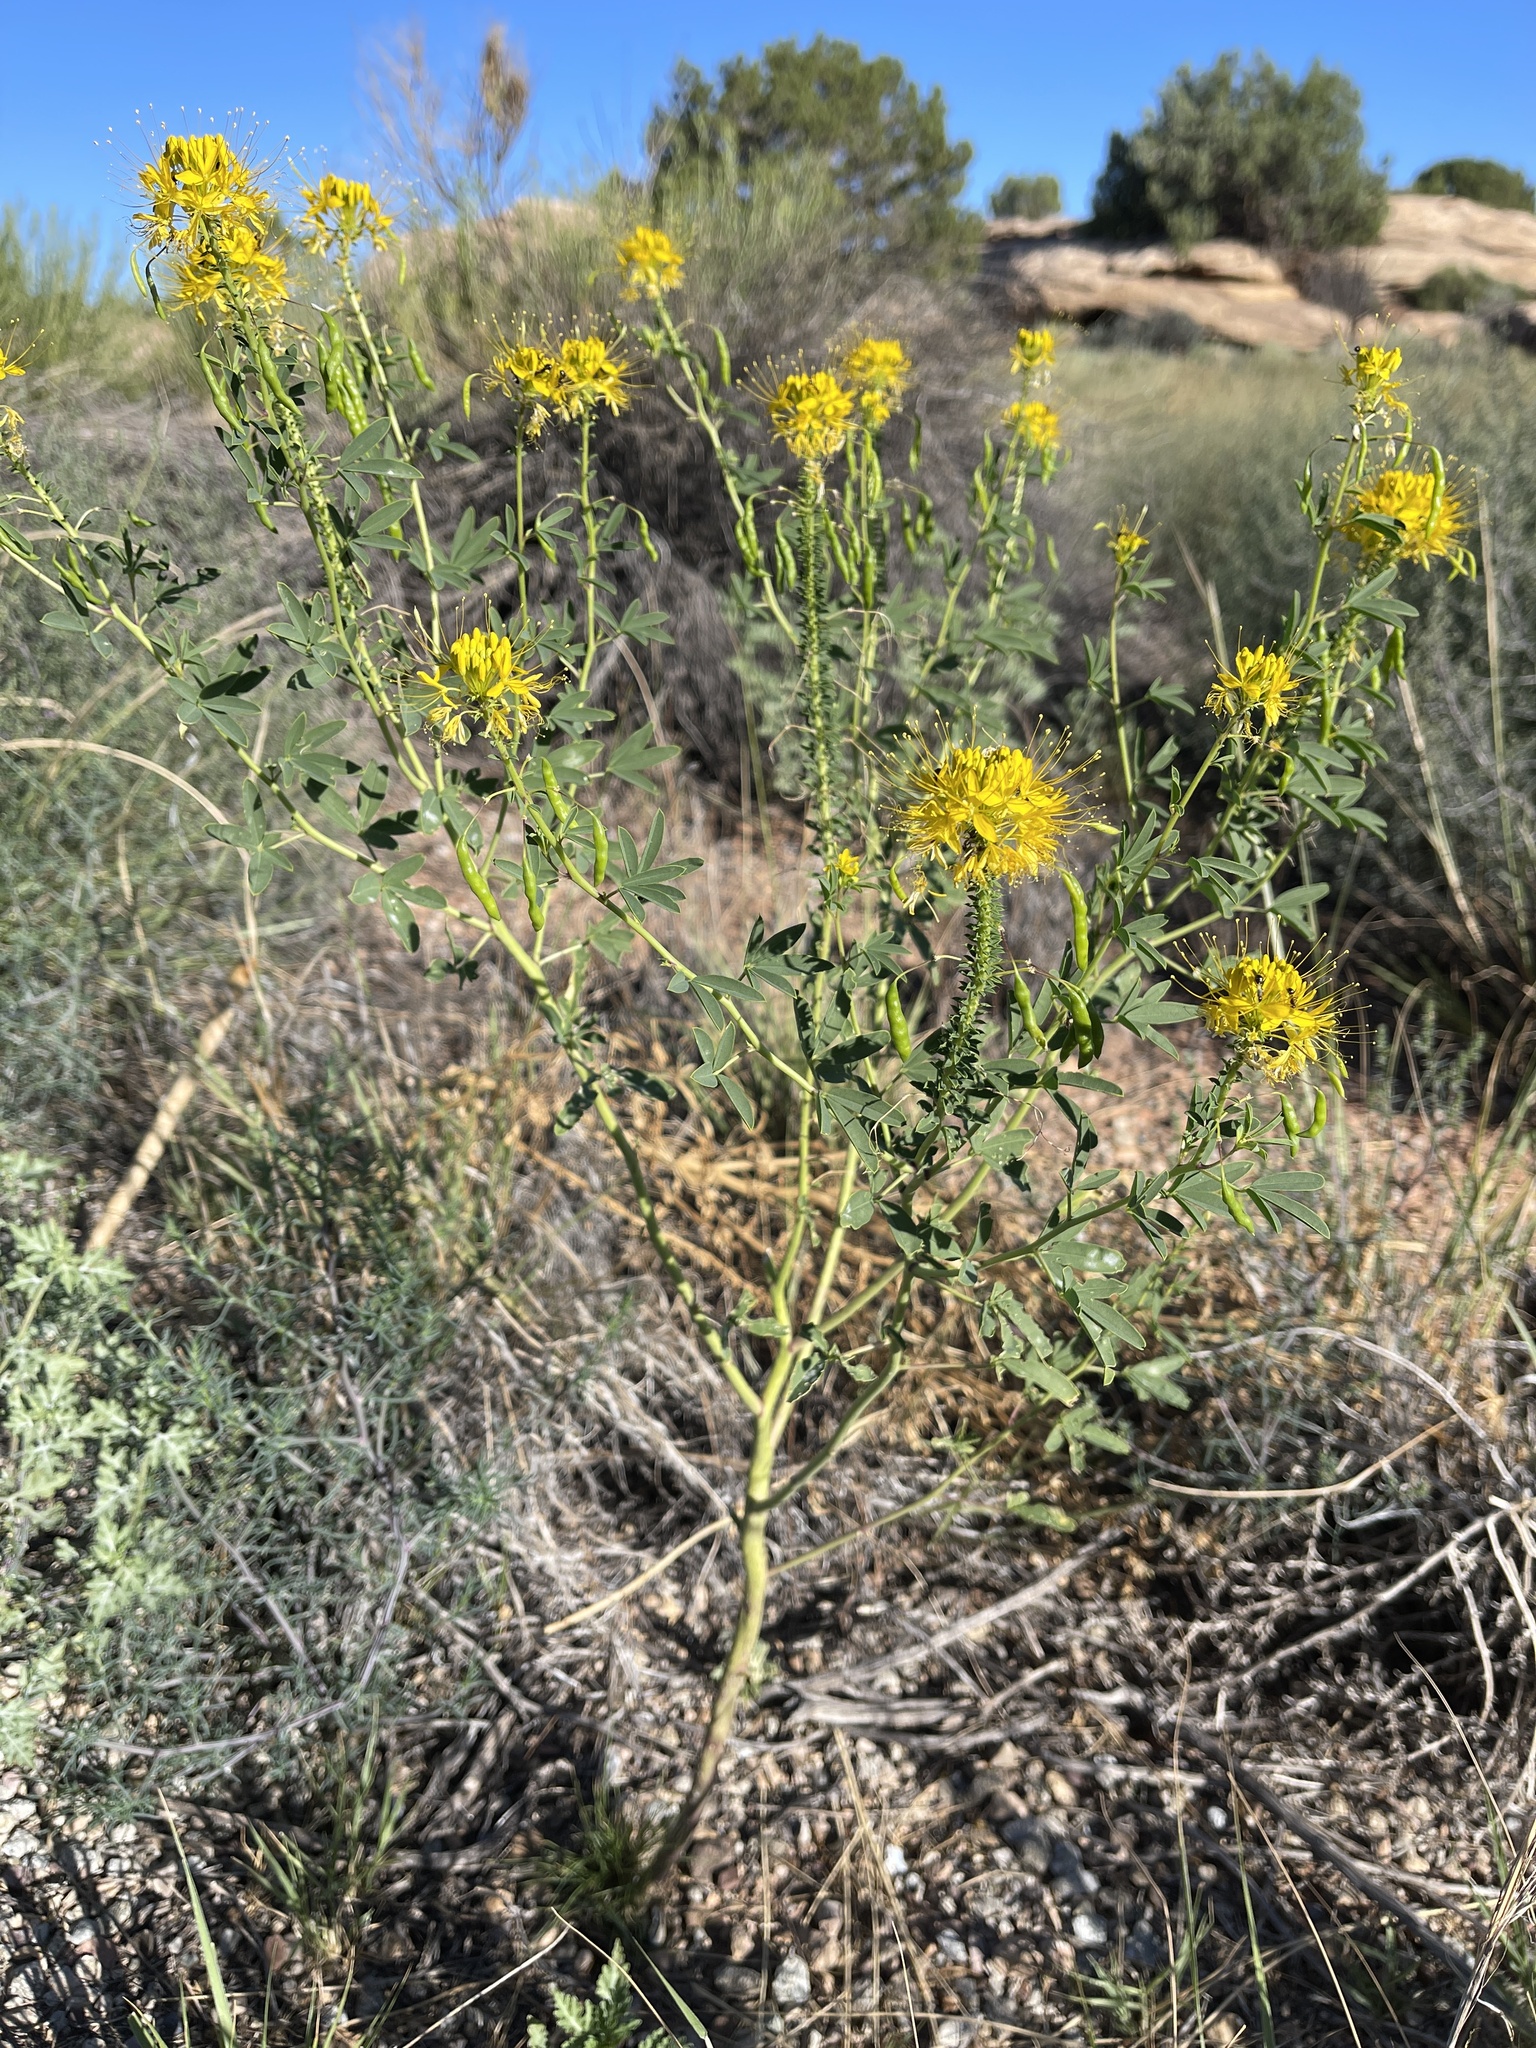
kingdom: Plantae
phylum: Tracheophyta
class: Magnoliopsida
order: Brassicales
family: Cleomaceae
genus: Cleomella
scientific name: Cleomella lutea
